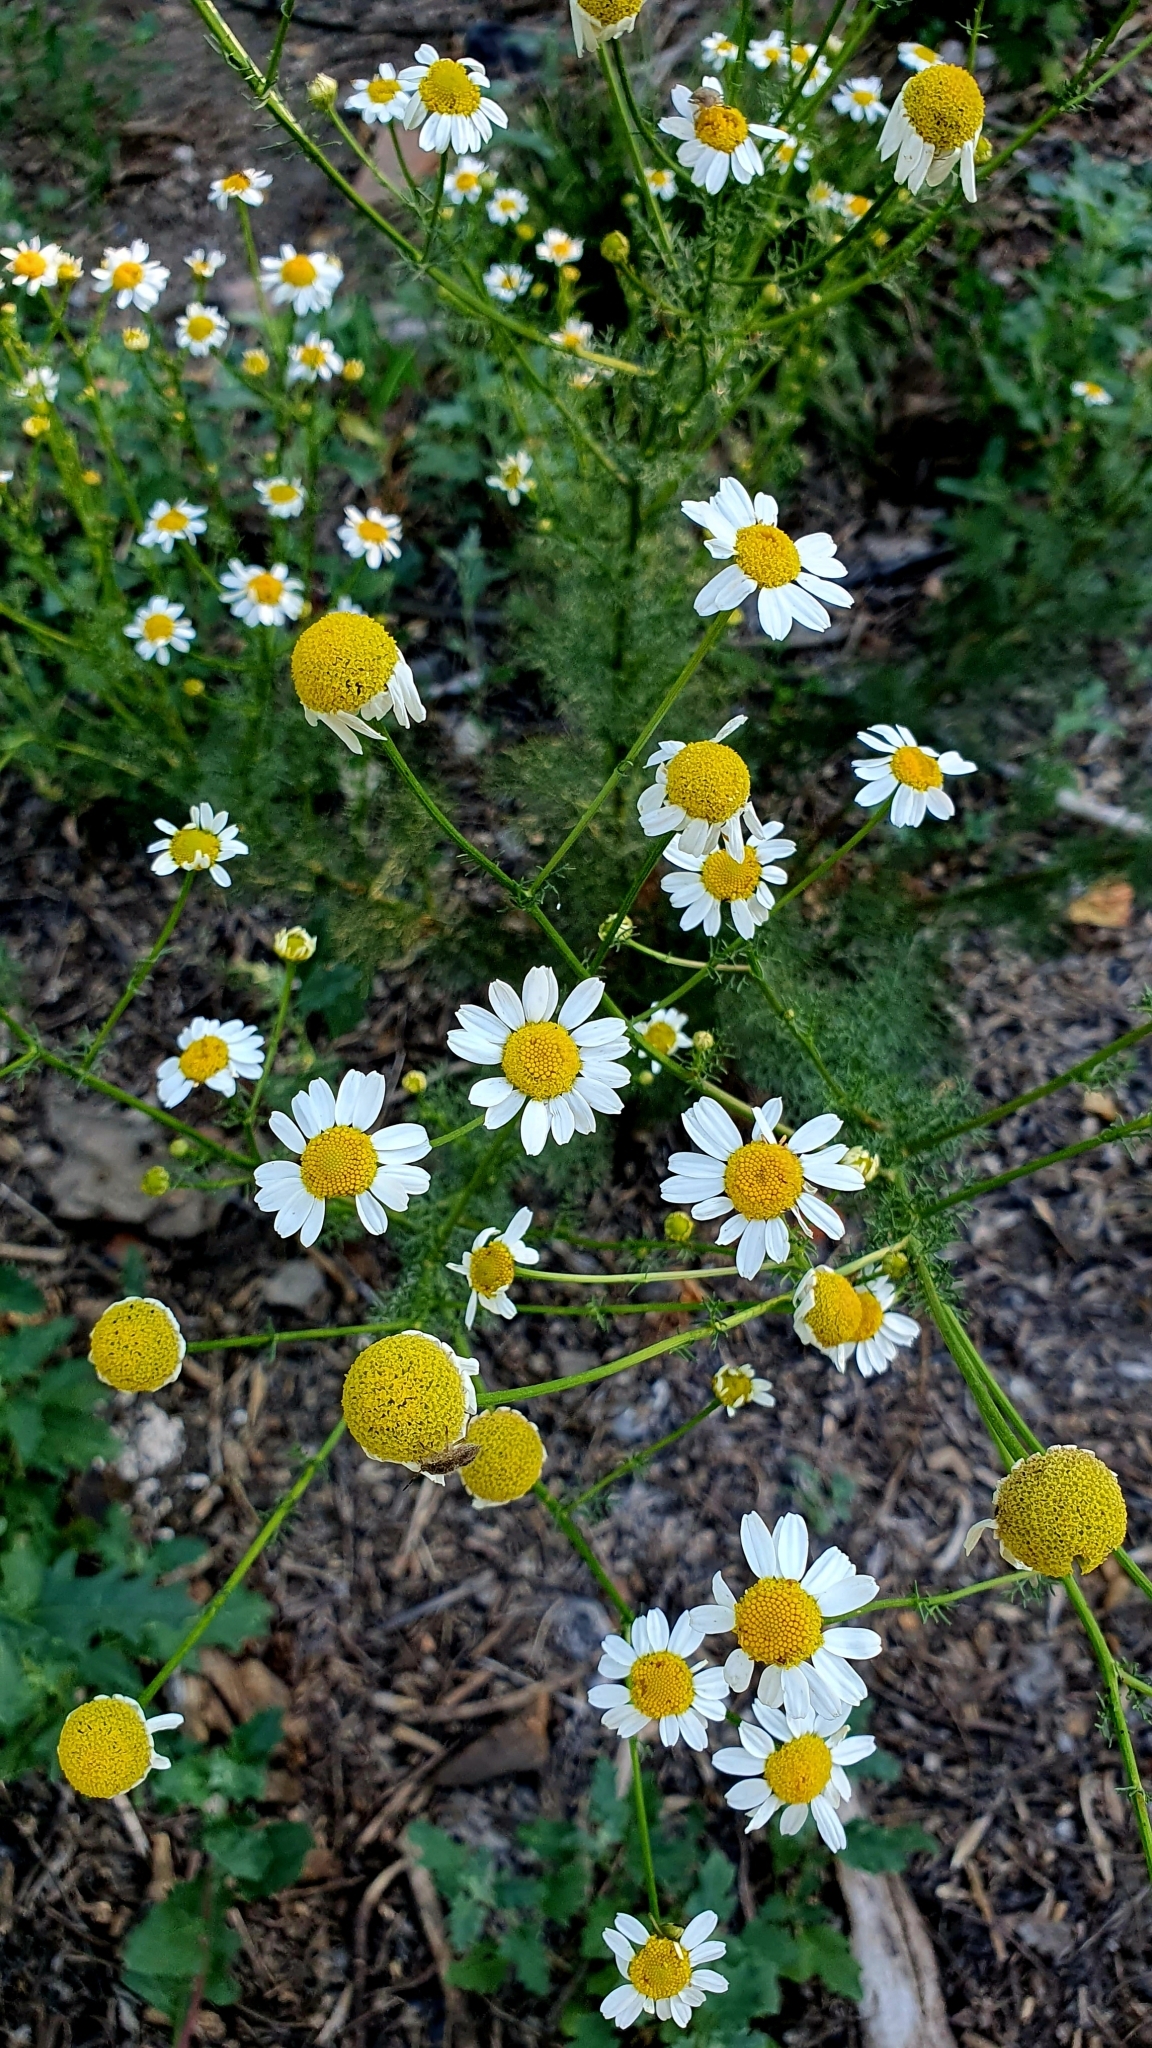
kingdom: Plantae
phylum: Tracheophyta
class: Magnoliopsida
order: Asterales
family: Asteraceae
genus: Tripleurospermum
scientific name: Tripleurospermum inodorum
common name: Scentless mayweed
